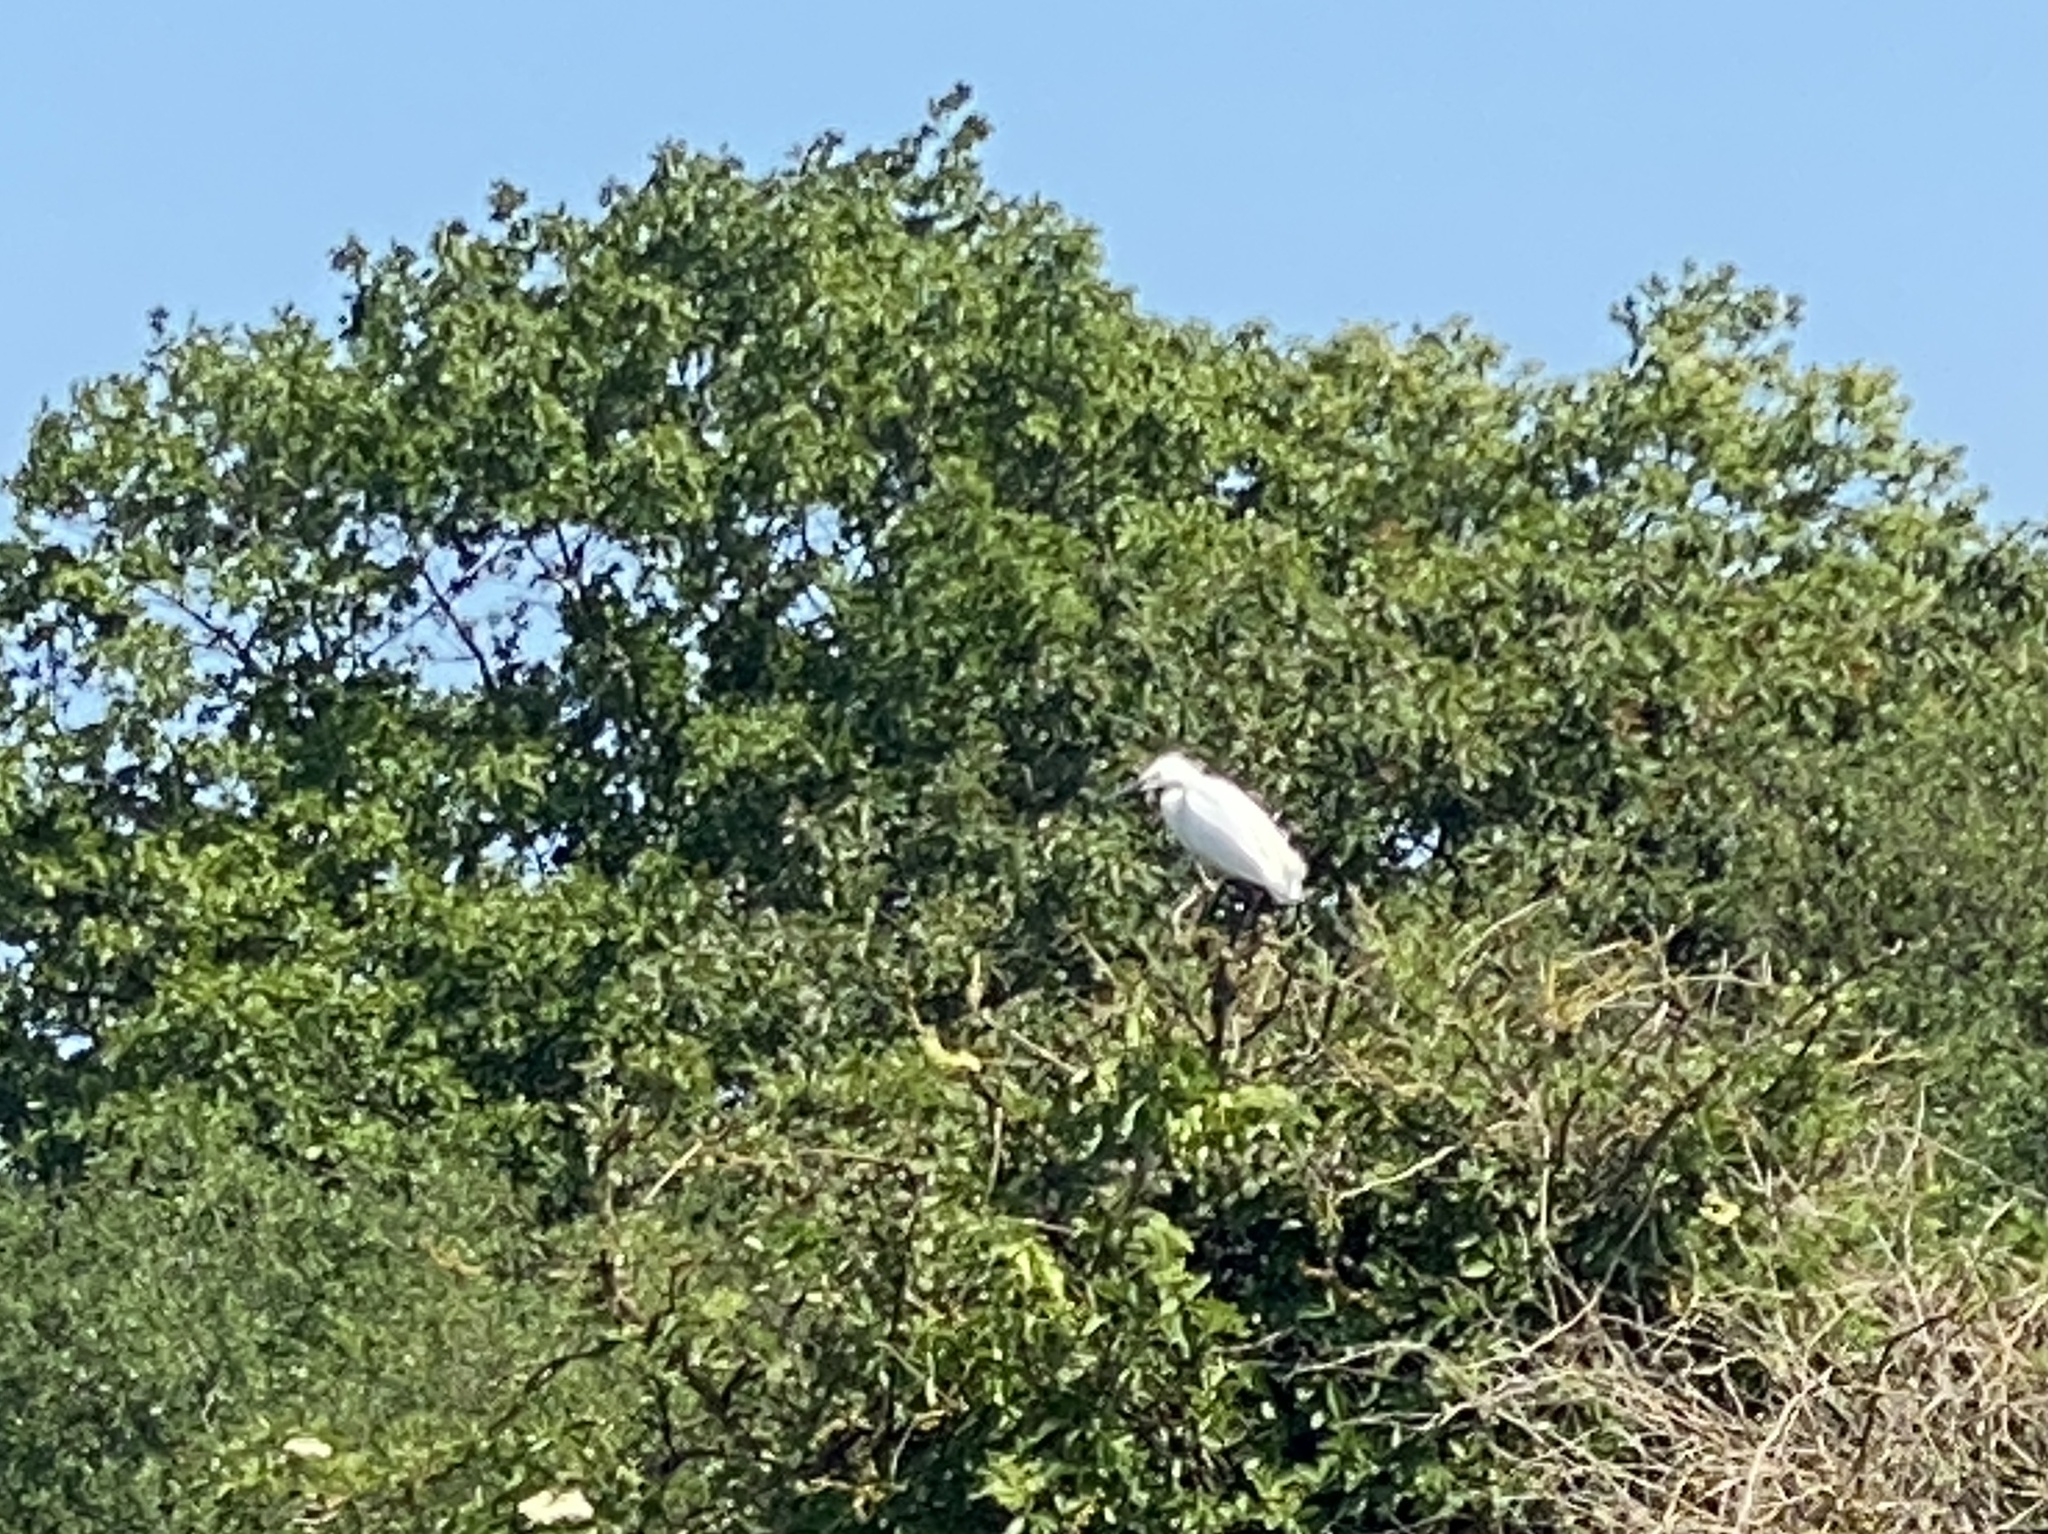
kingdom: Animalia
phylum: Chordata
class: Aves
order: Pelecaniformes
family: Ardeidae
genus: Egretta
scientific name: Egretta garzetta
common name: Little egret
